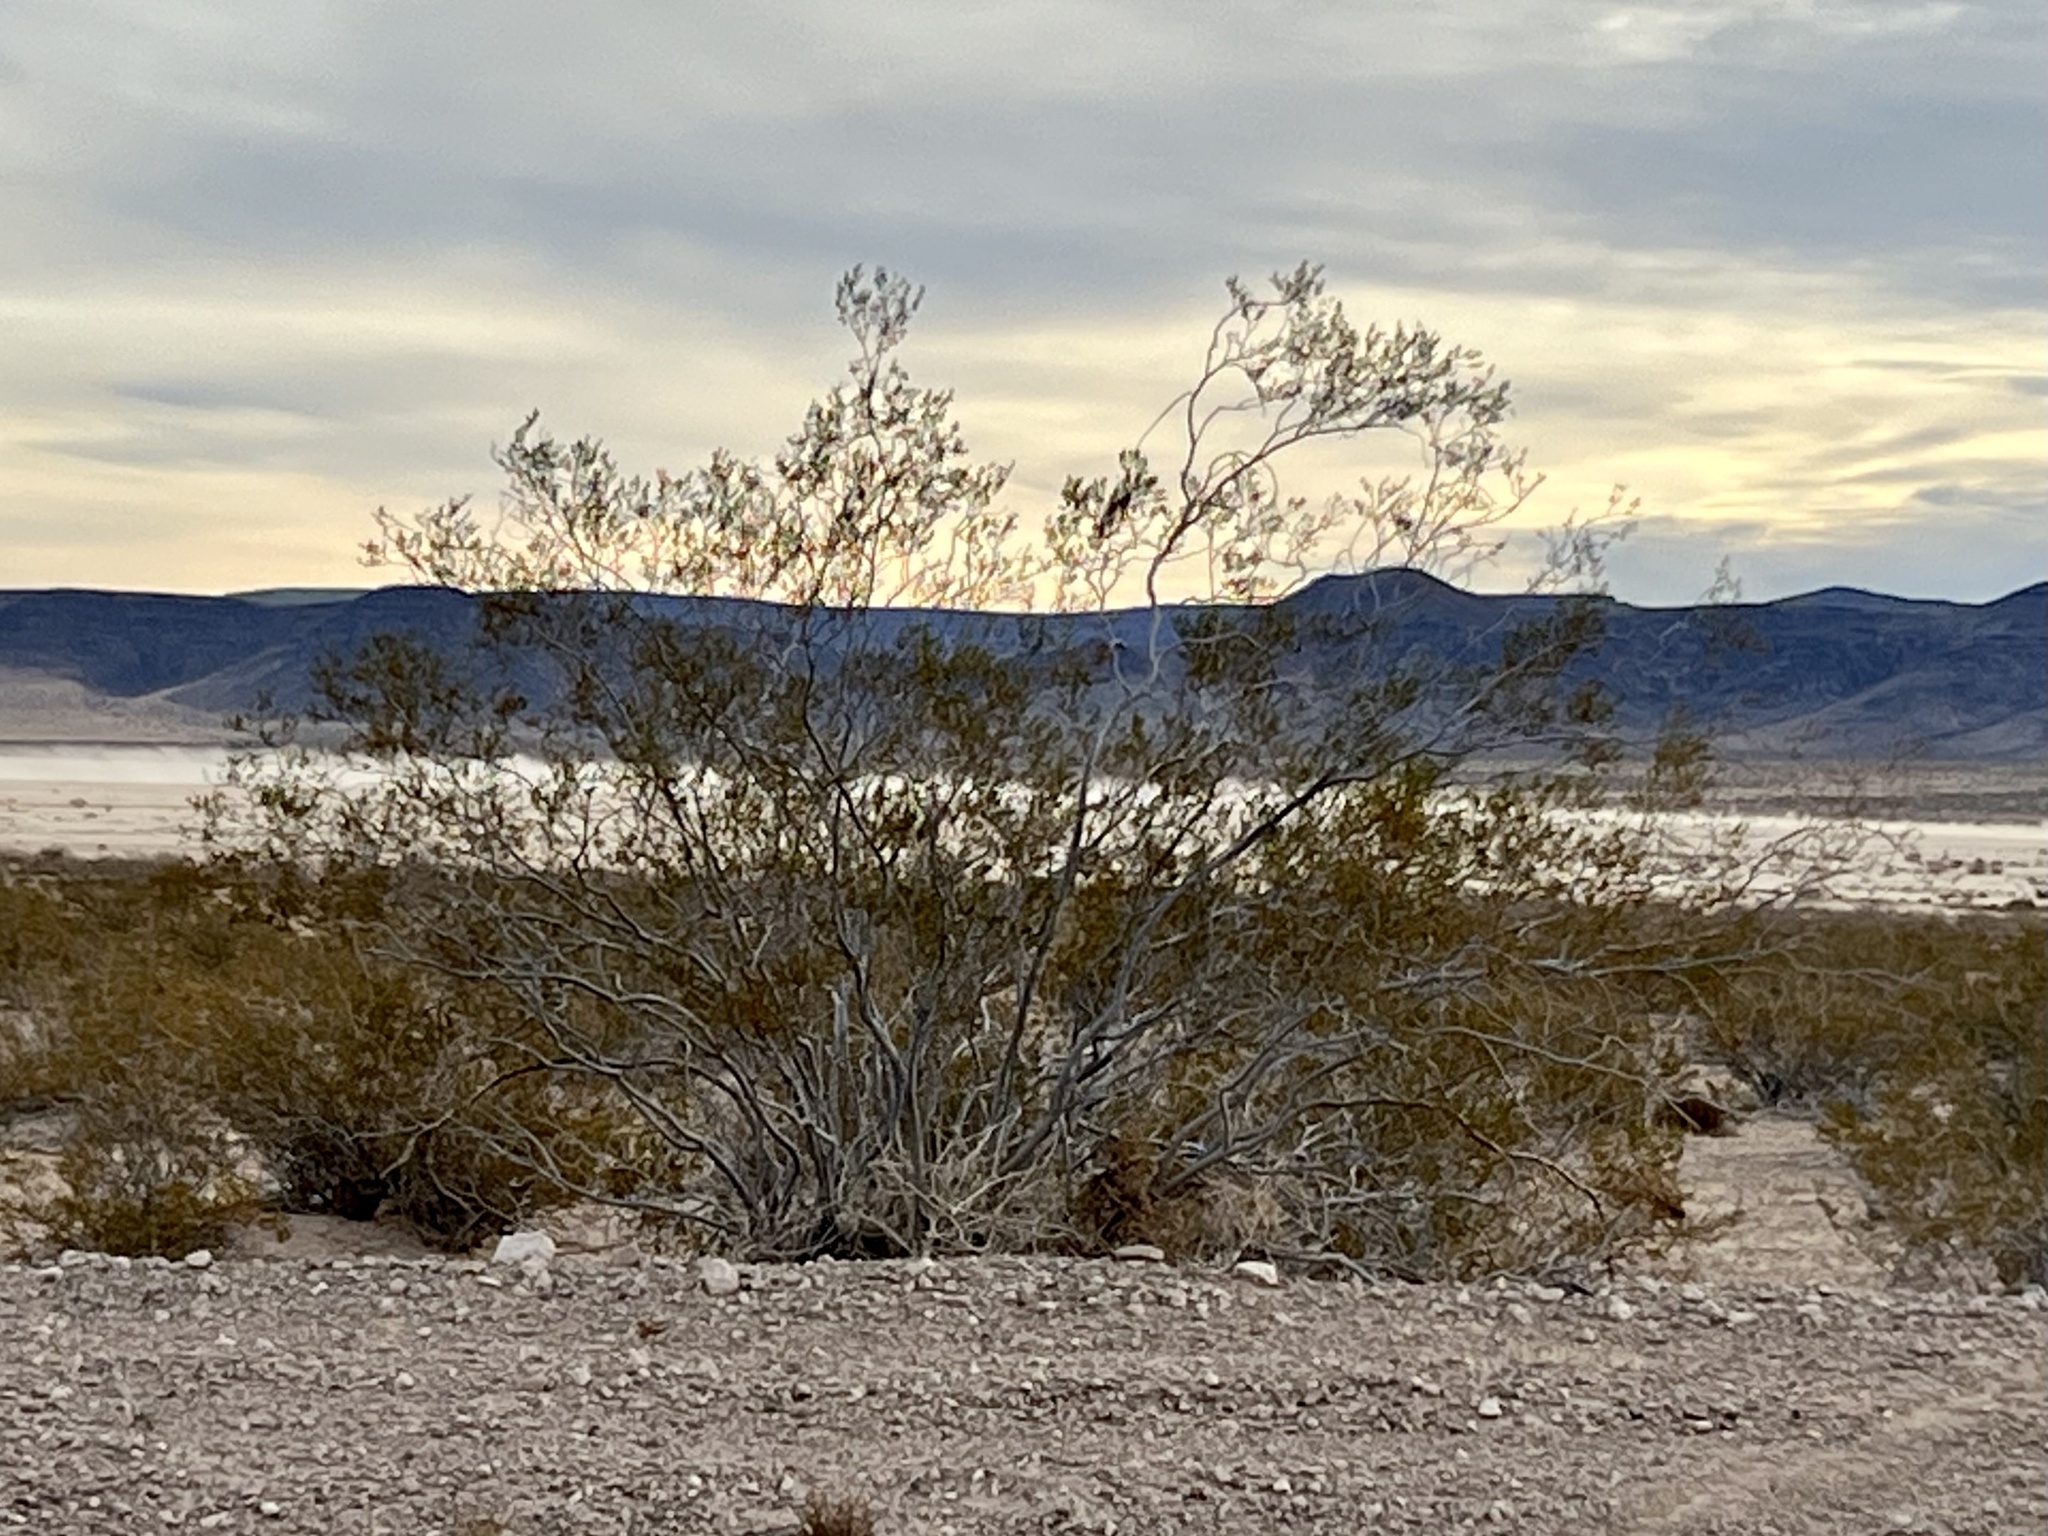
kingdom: Plantae
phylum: Tracheophyta
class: Magnoliopsida
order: Zygophyllales
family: Zygophyllaceae
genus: Larrea
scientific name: Larrea tridentata
